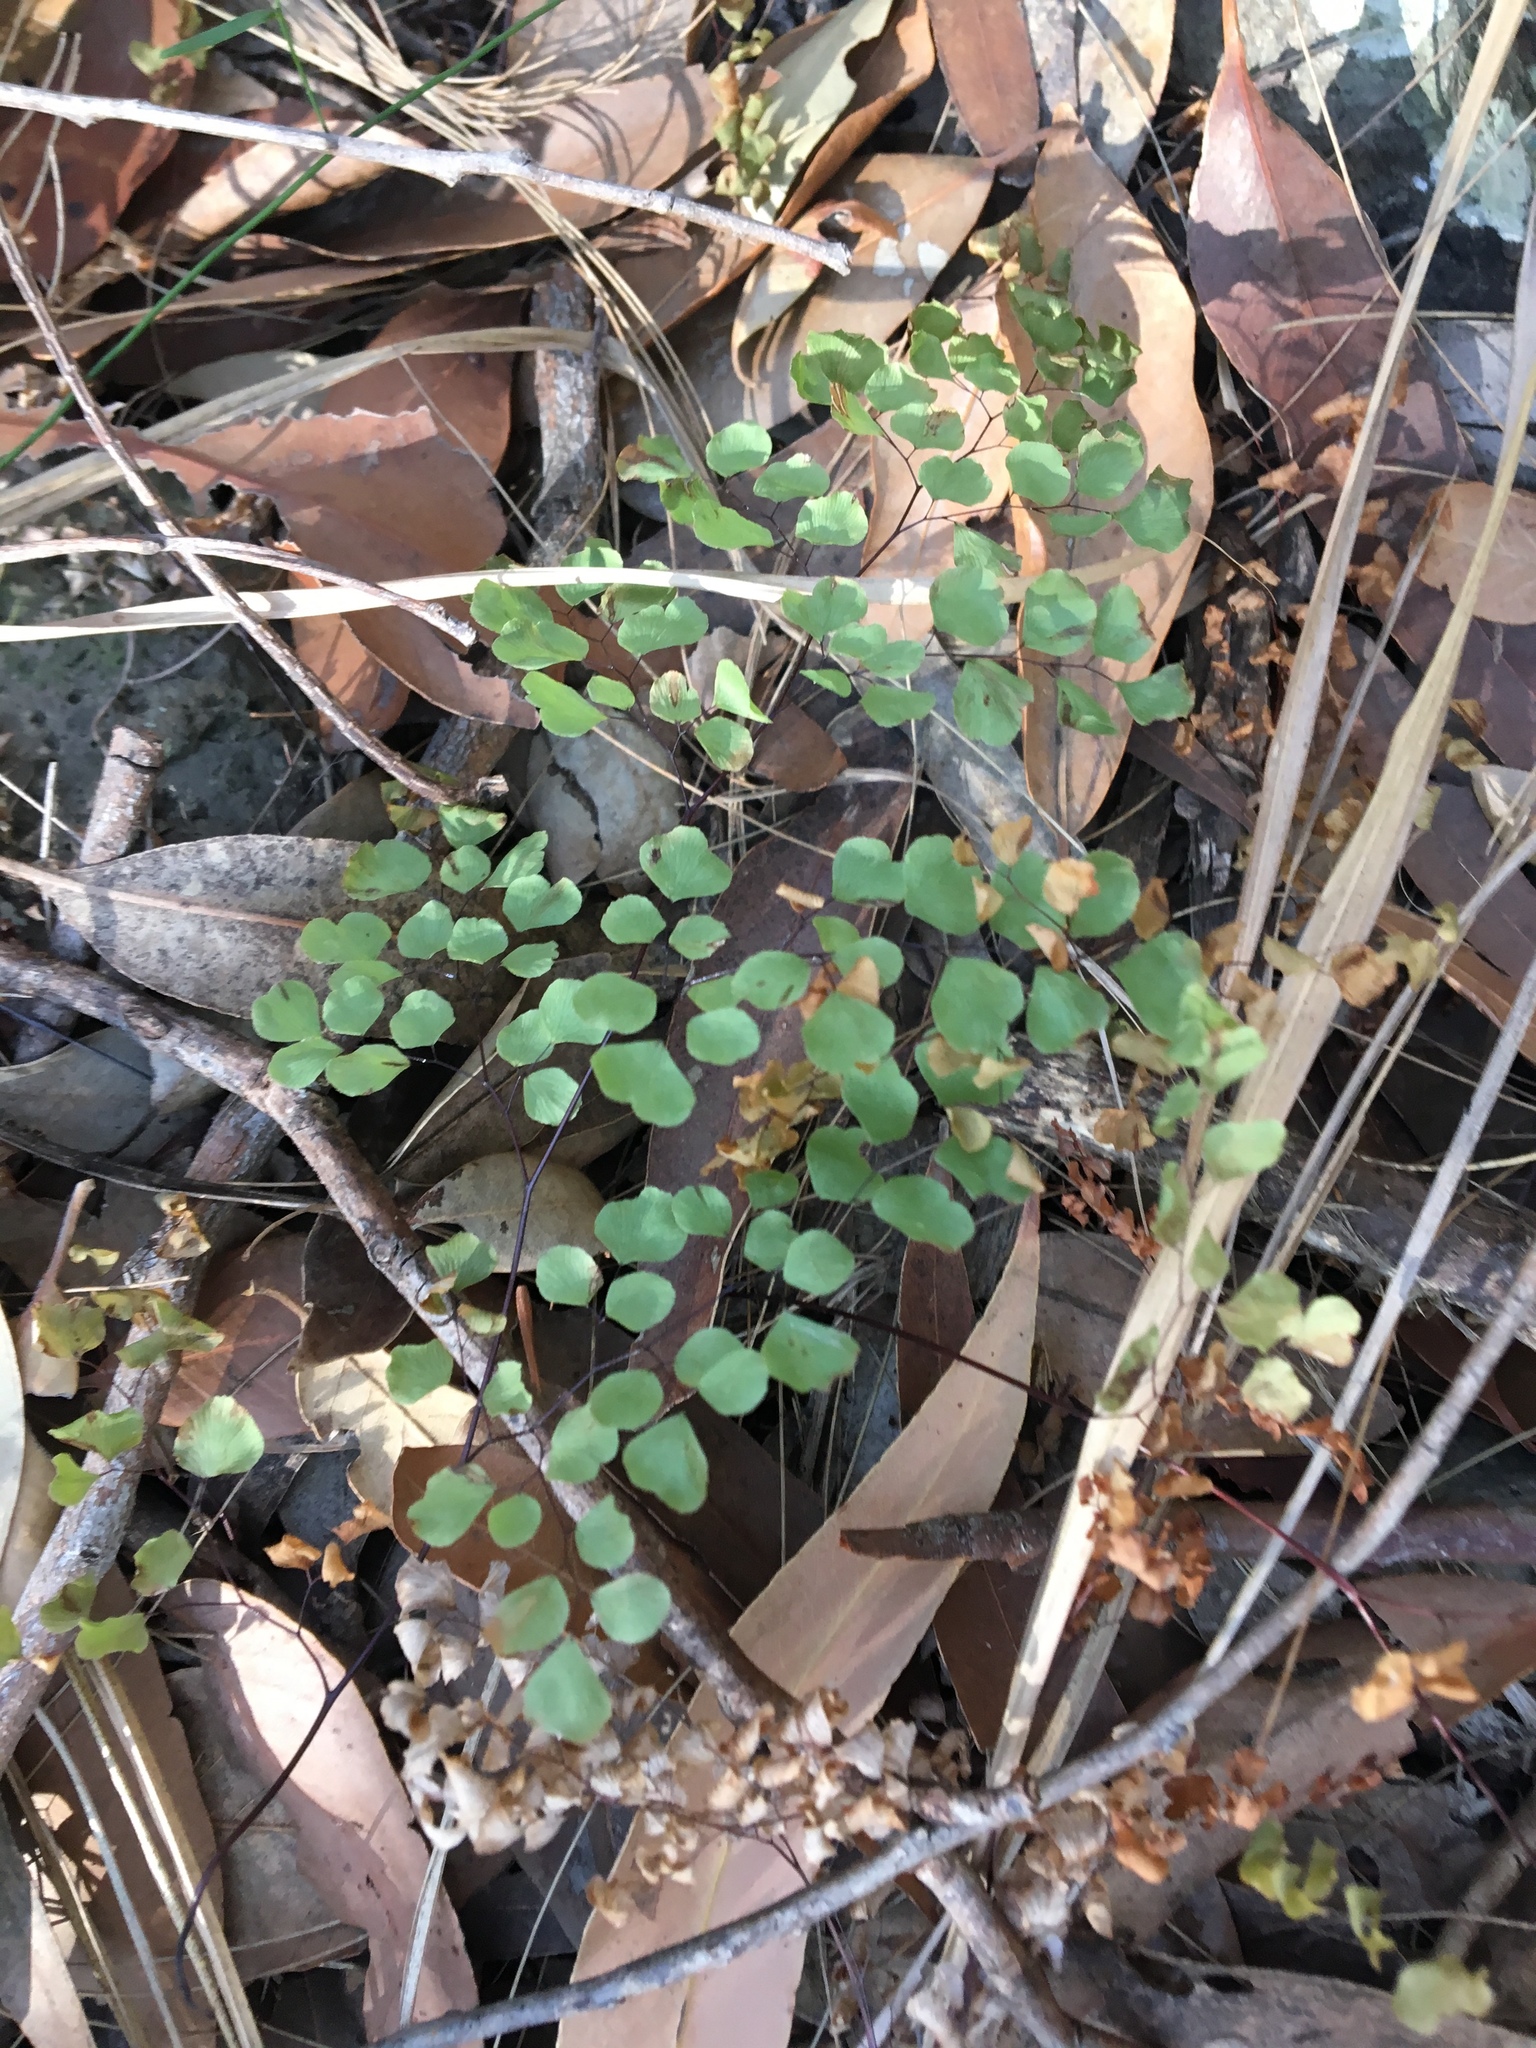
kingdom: Plantae
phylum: Tracheophyta
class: Polypodiopsida
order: Polypodiales
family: Pteridaceae
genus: Adiantum
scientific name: Adiantum aethiopicum
